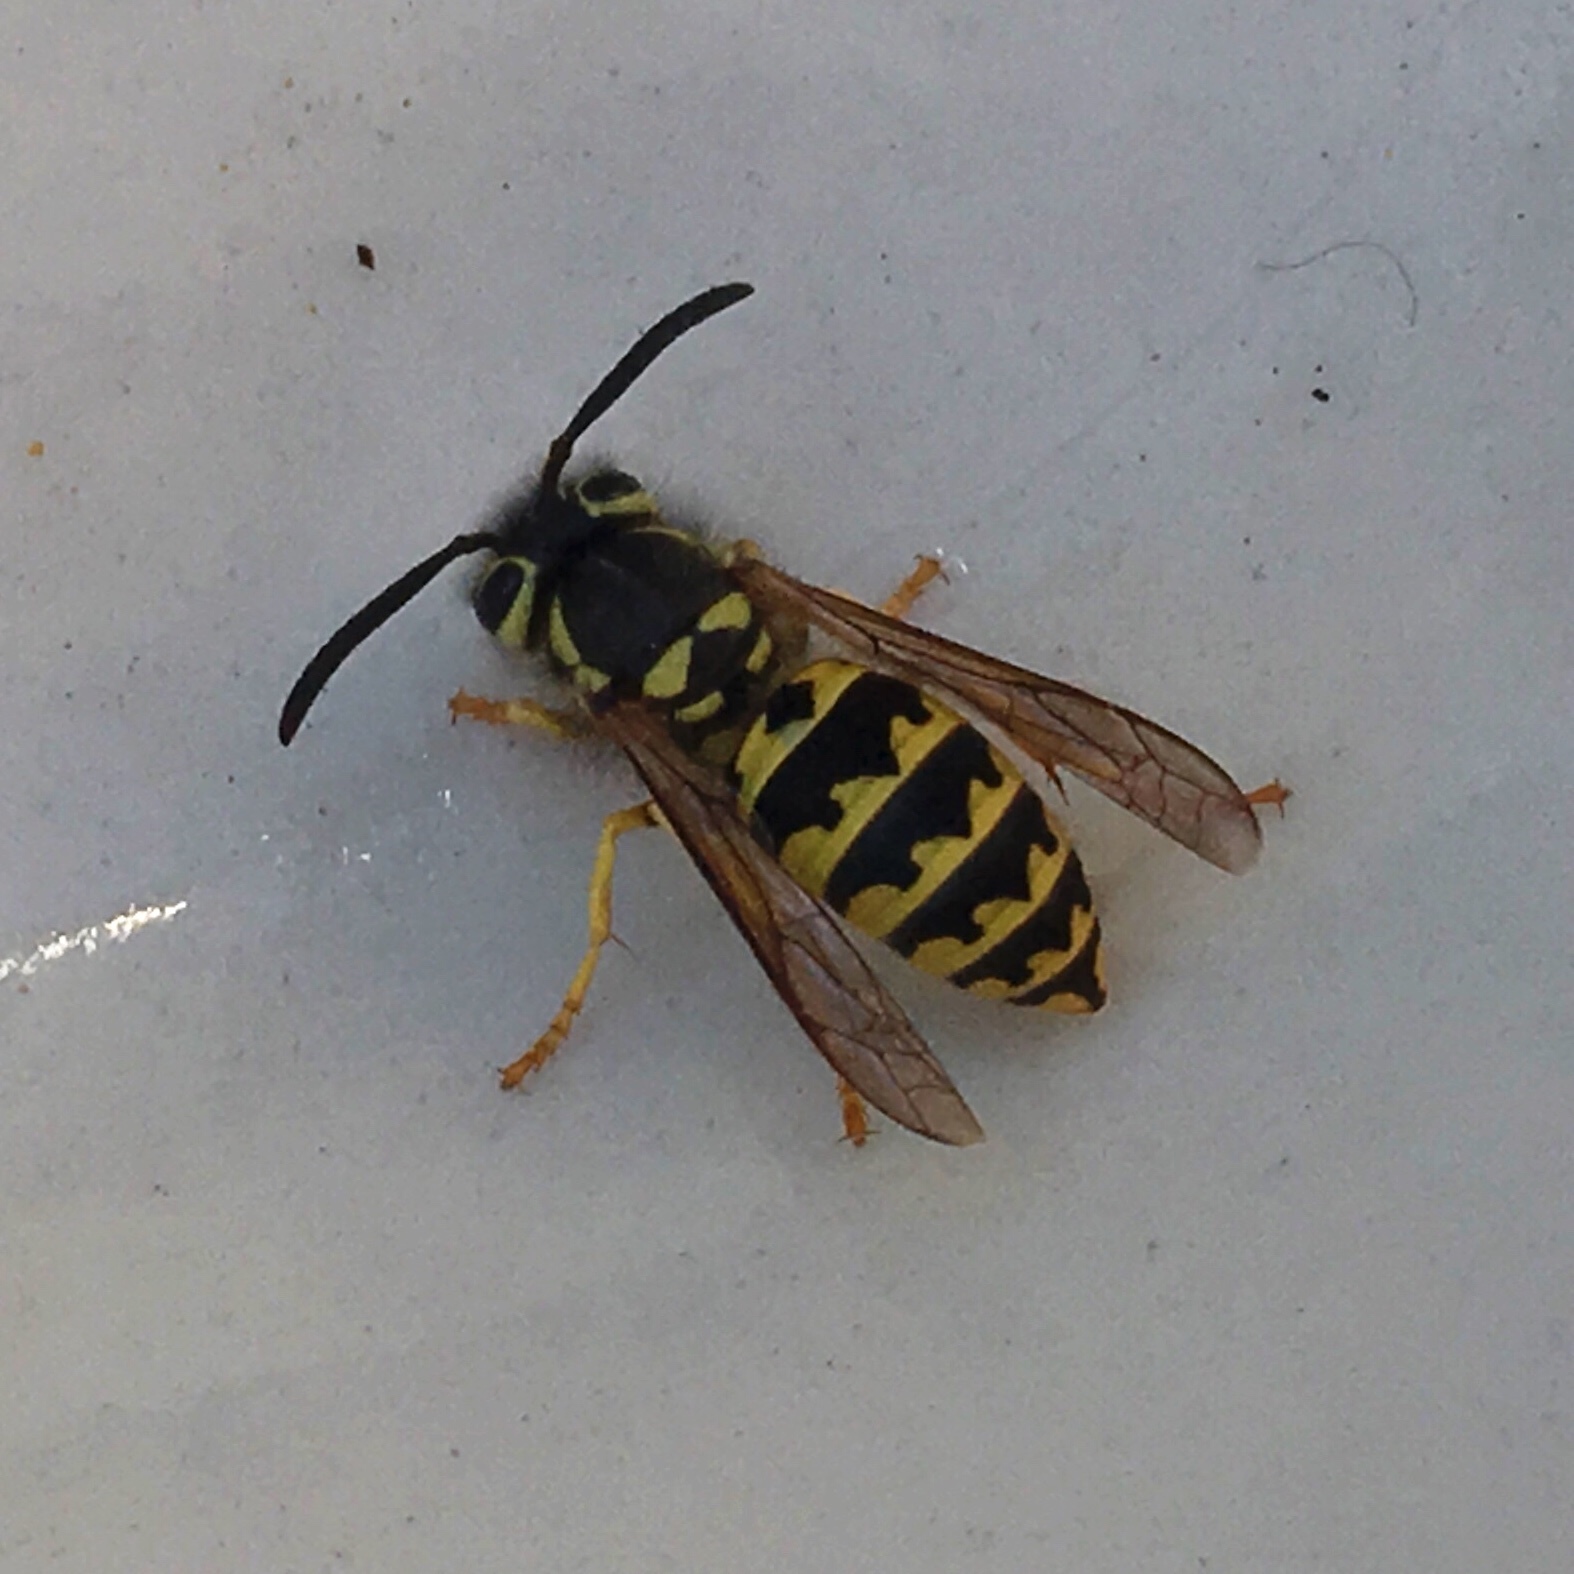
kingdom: Animalia
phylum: Arthropoda
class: Insecta
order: Hymenoptera
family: Vespidae
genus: Vespula
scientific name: Vespula pensylvanica
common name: Western yellowjacket
